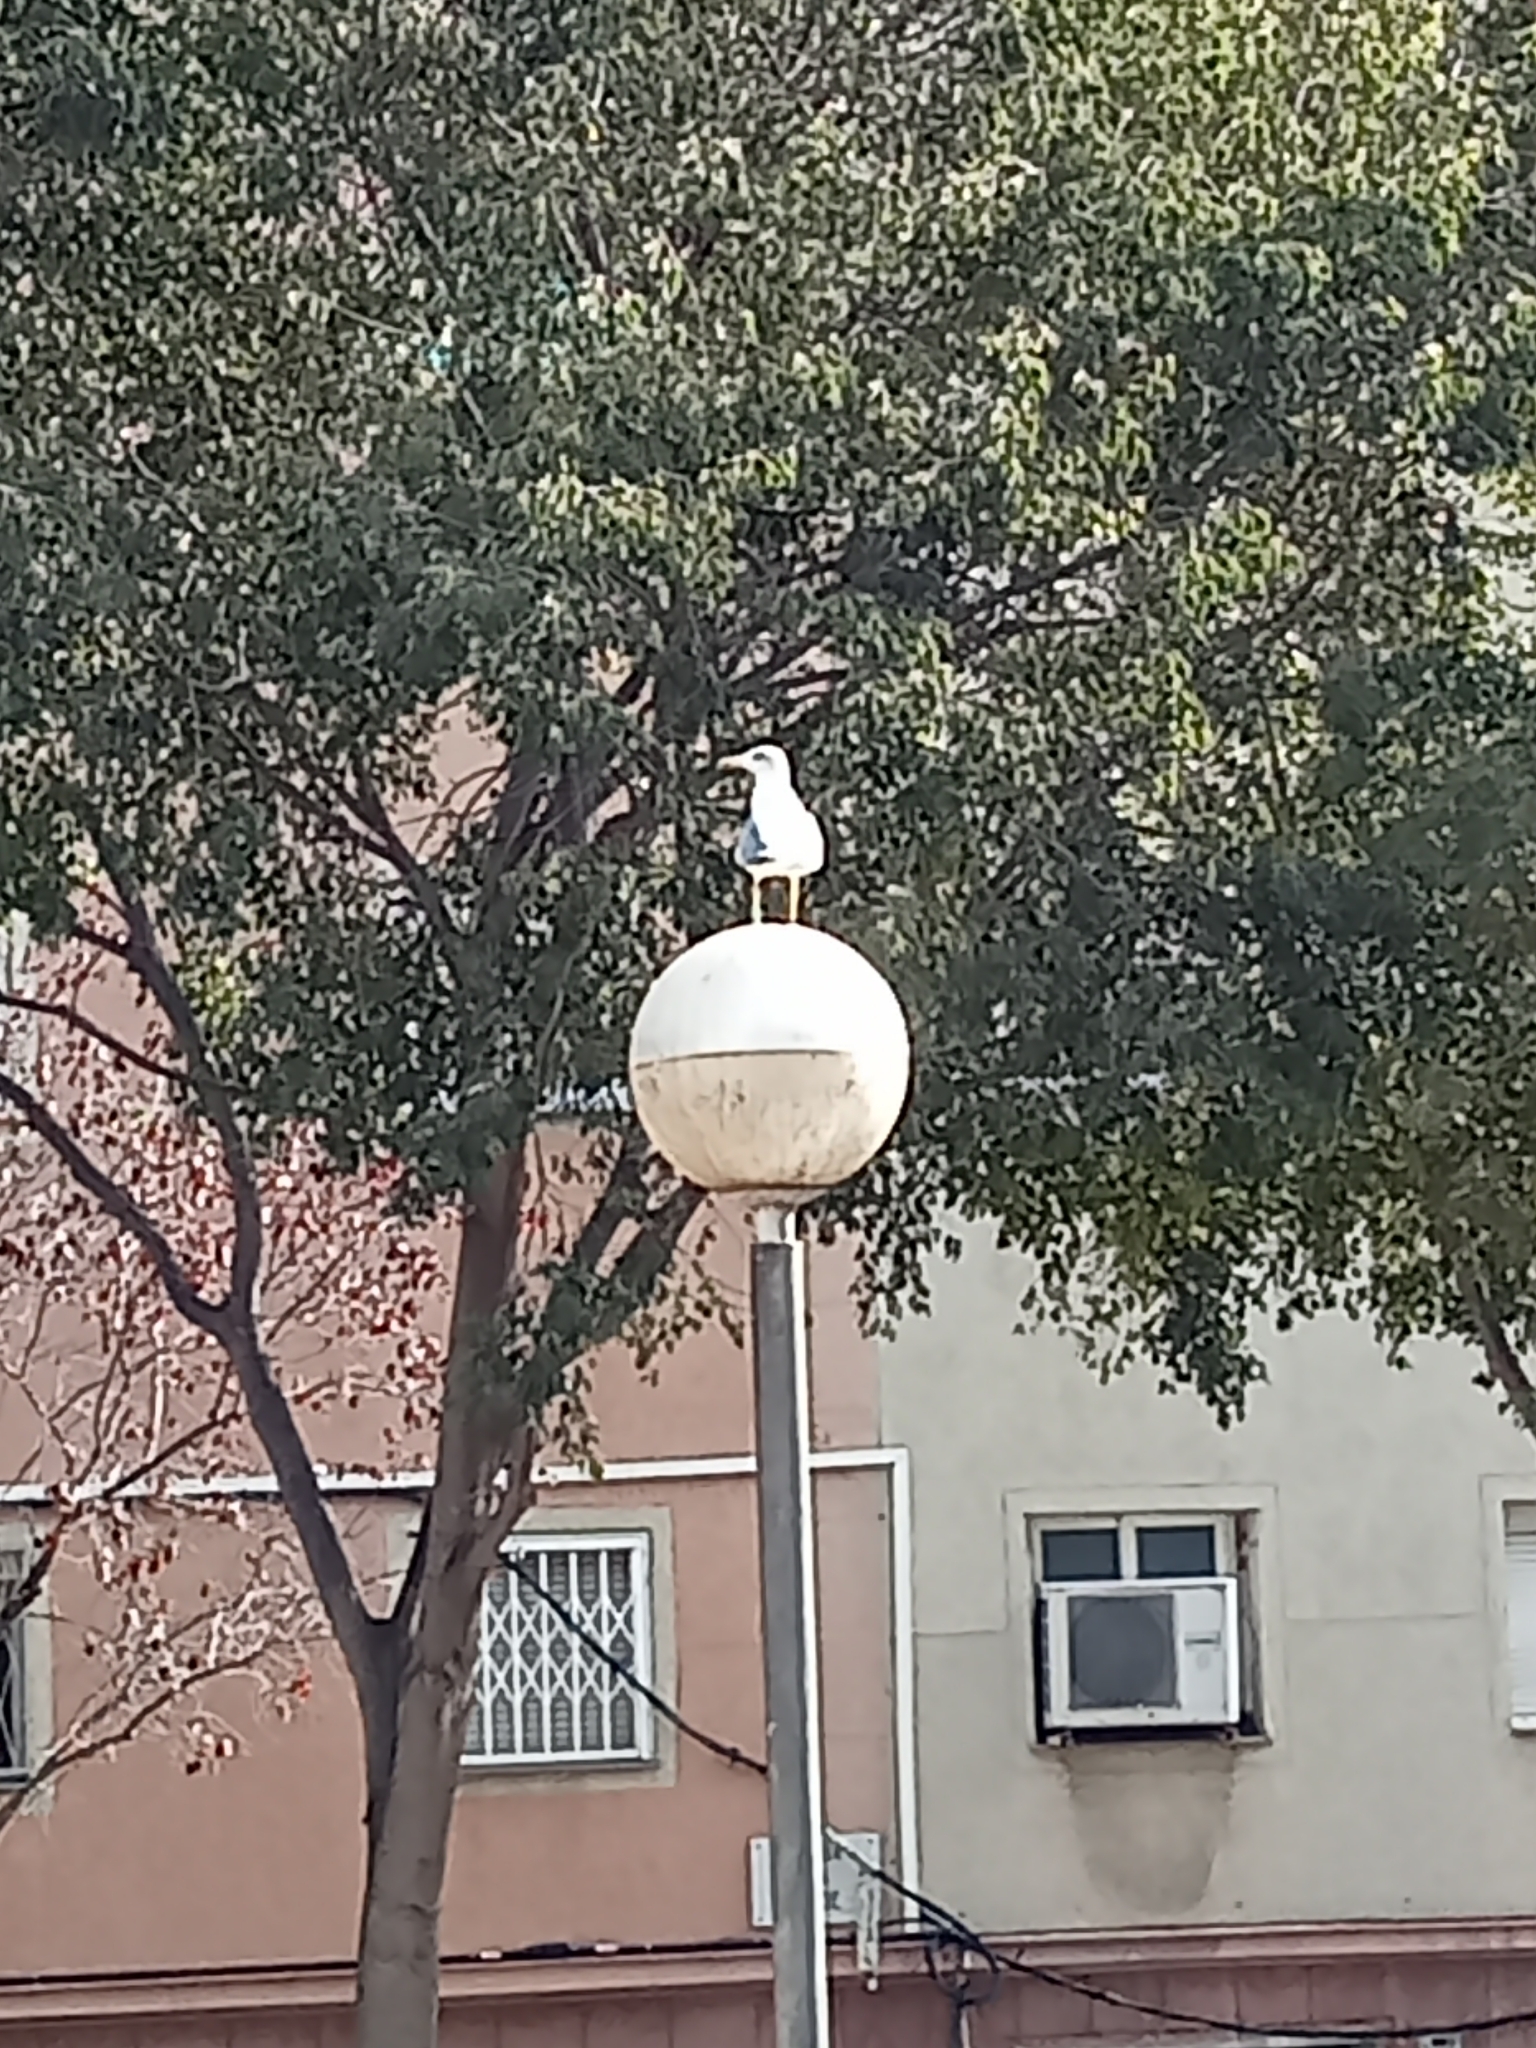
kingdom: Animalia
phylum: Chordata
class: Aves
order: Charadriiformes
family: Laridae
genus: Larus
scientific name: Larus michahellis
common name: Yellow-legged gull
